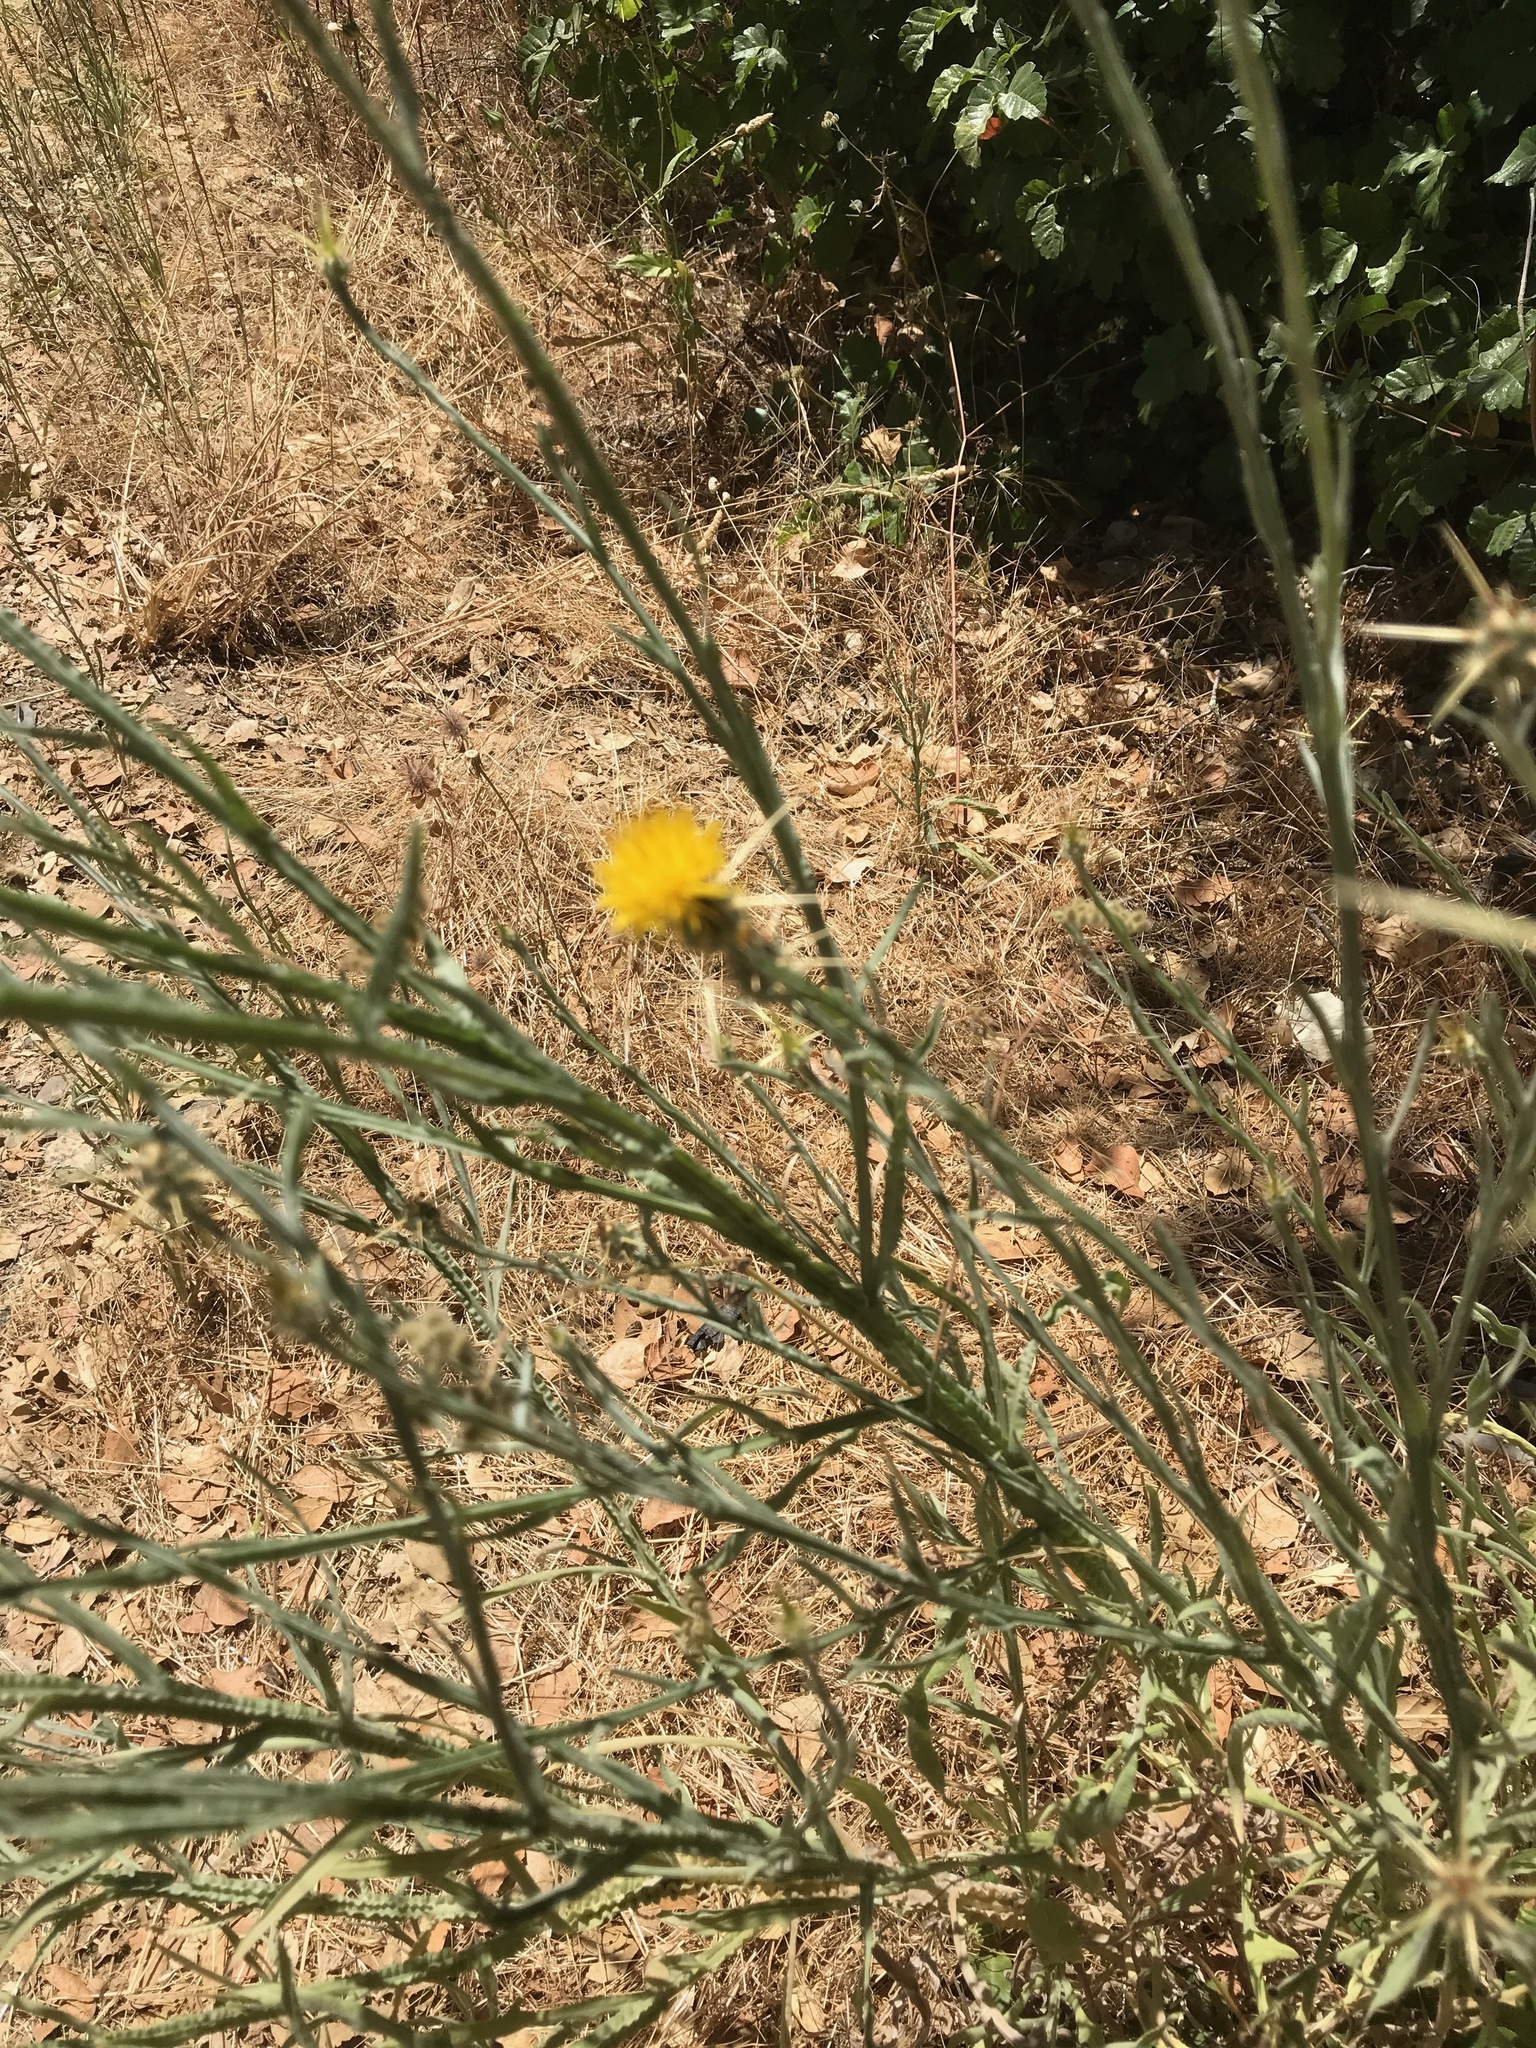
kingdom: Plantae
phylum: Tracheophyta
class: Magnoliopsida
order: Asterales
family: Asteraceae
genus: Centaurea
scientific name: Centaurea solstitialis
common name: Yellow star-thistle
